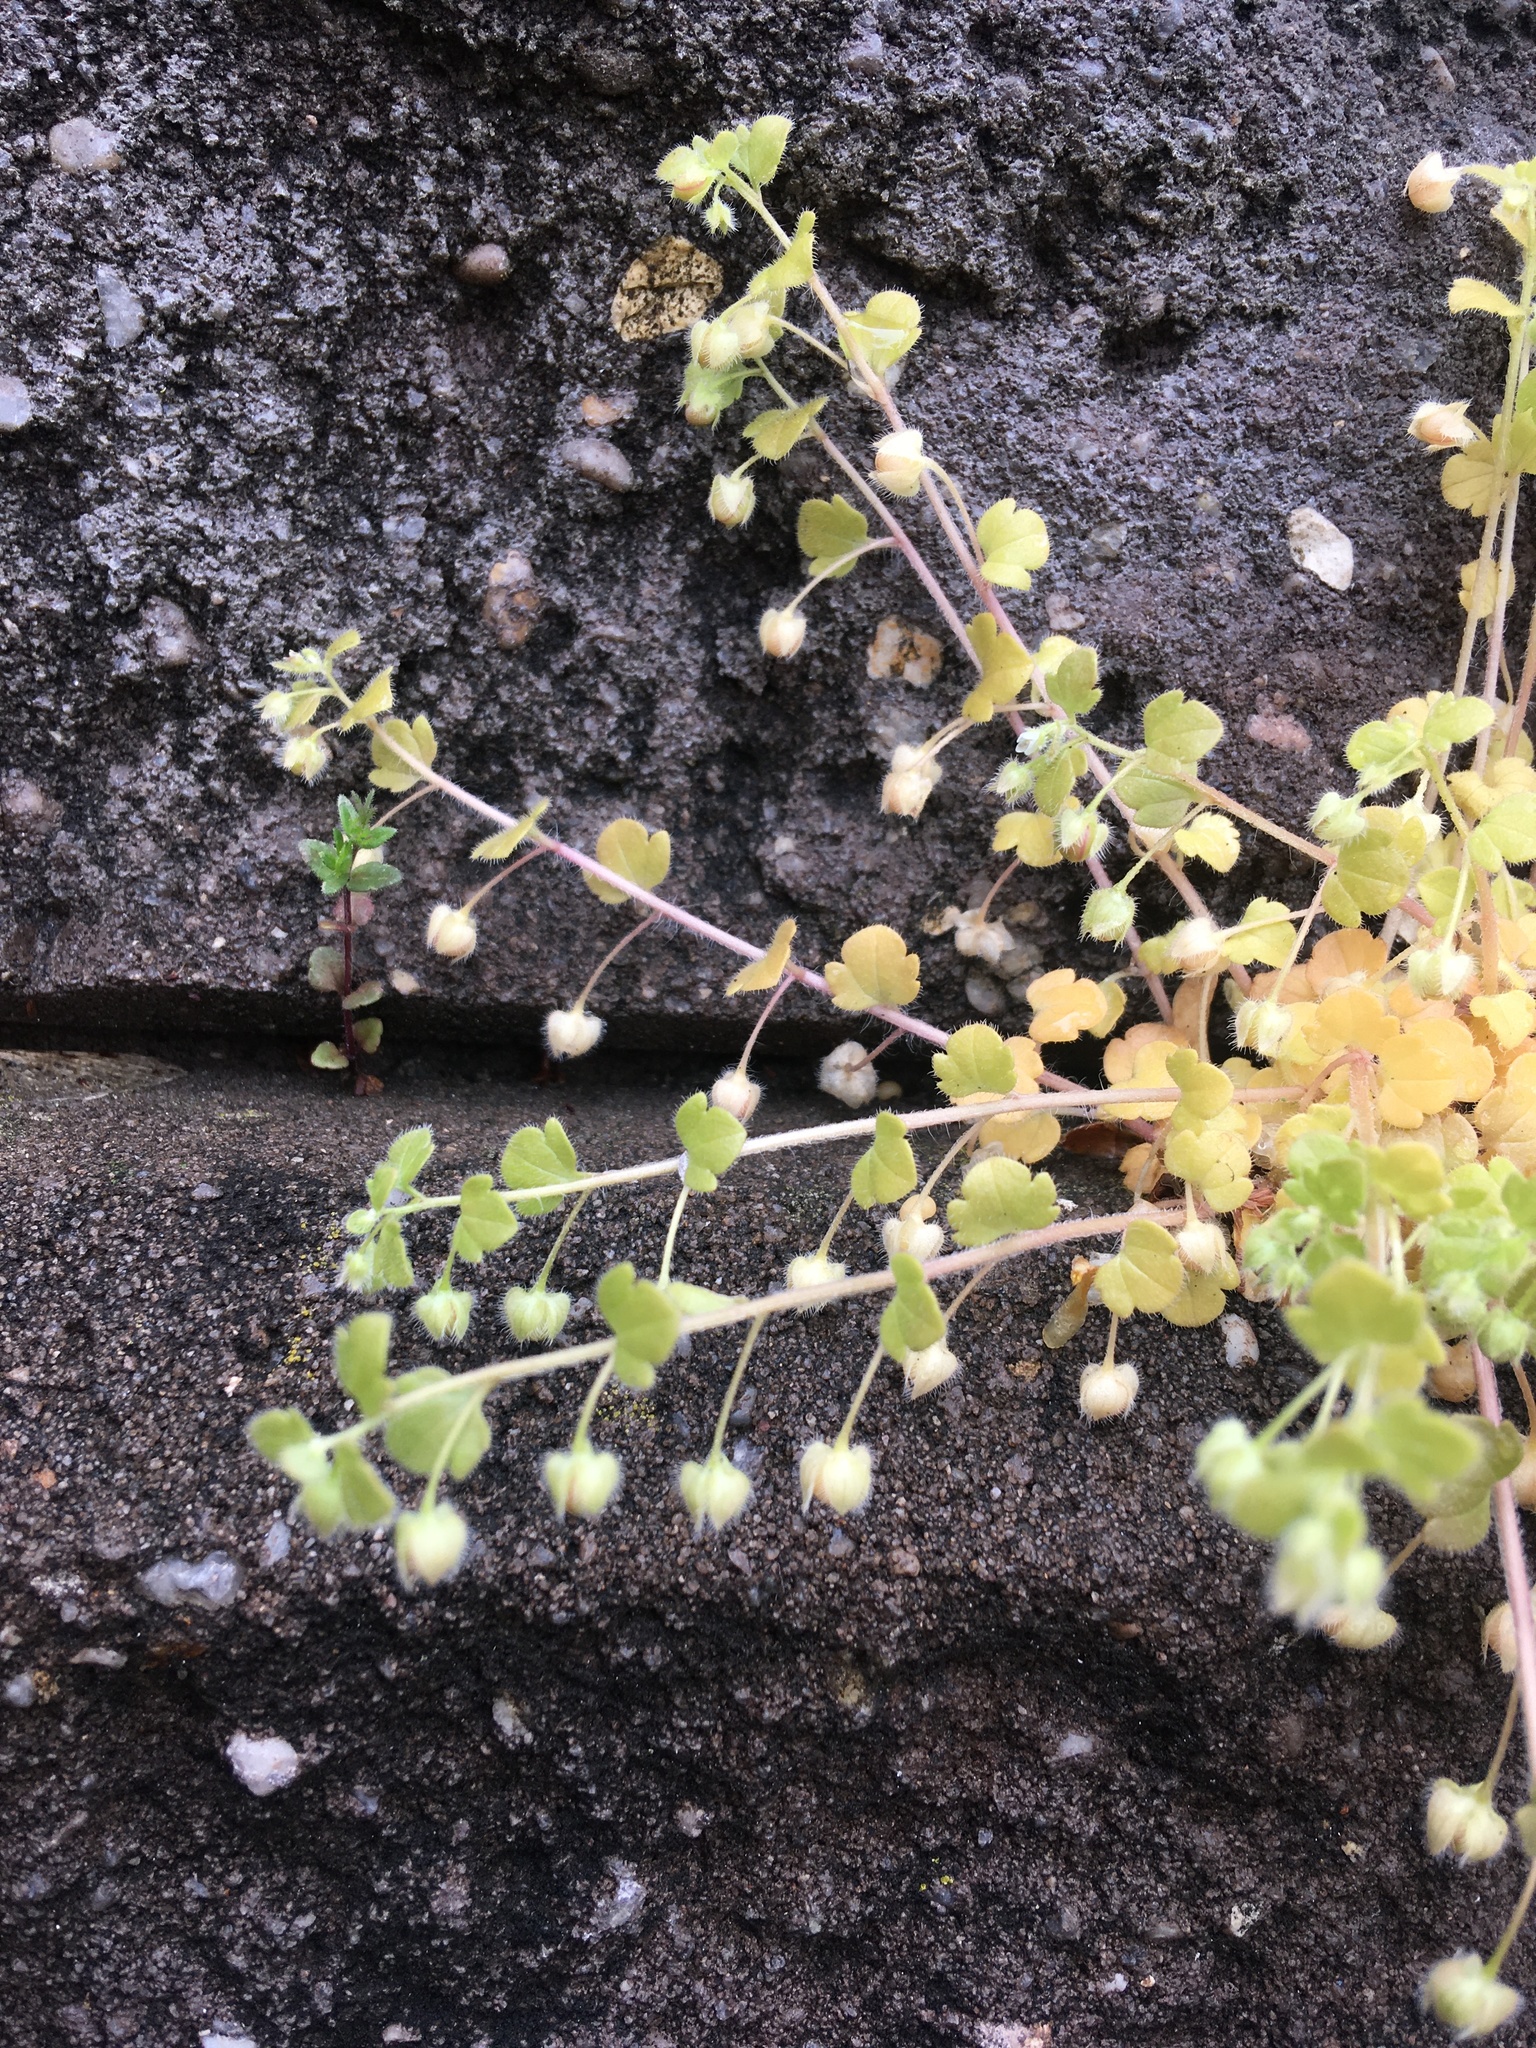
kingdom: Plantae
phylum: Tracheophyta
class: Magnoliopsida
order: Lamiales
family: Plantaginaceae
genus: Veronica
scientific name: Veronica sublobata
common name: False ivy-leaved speedwell
